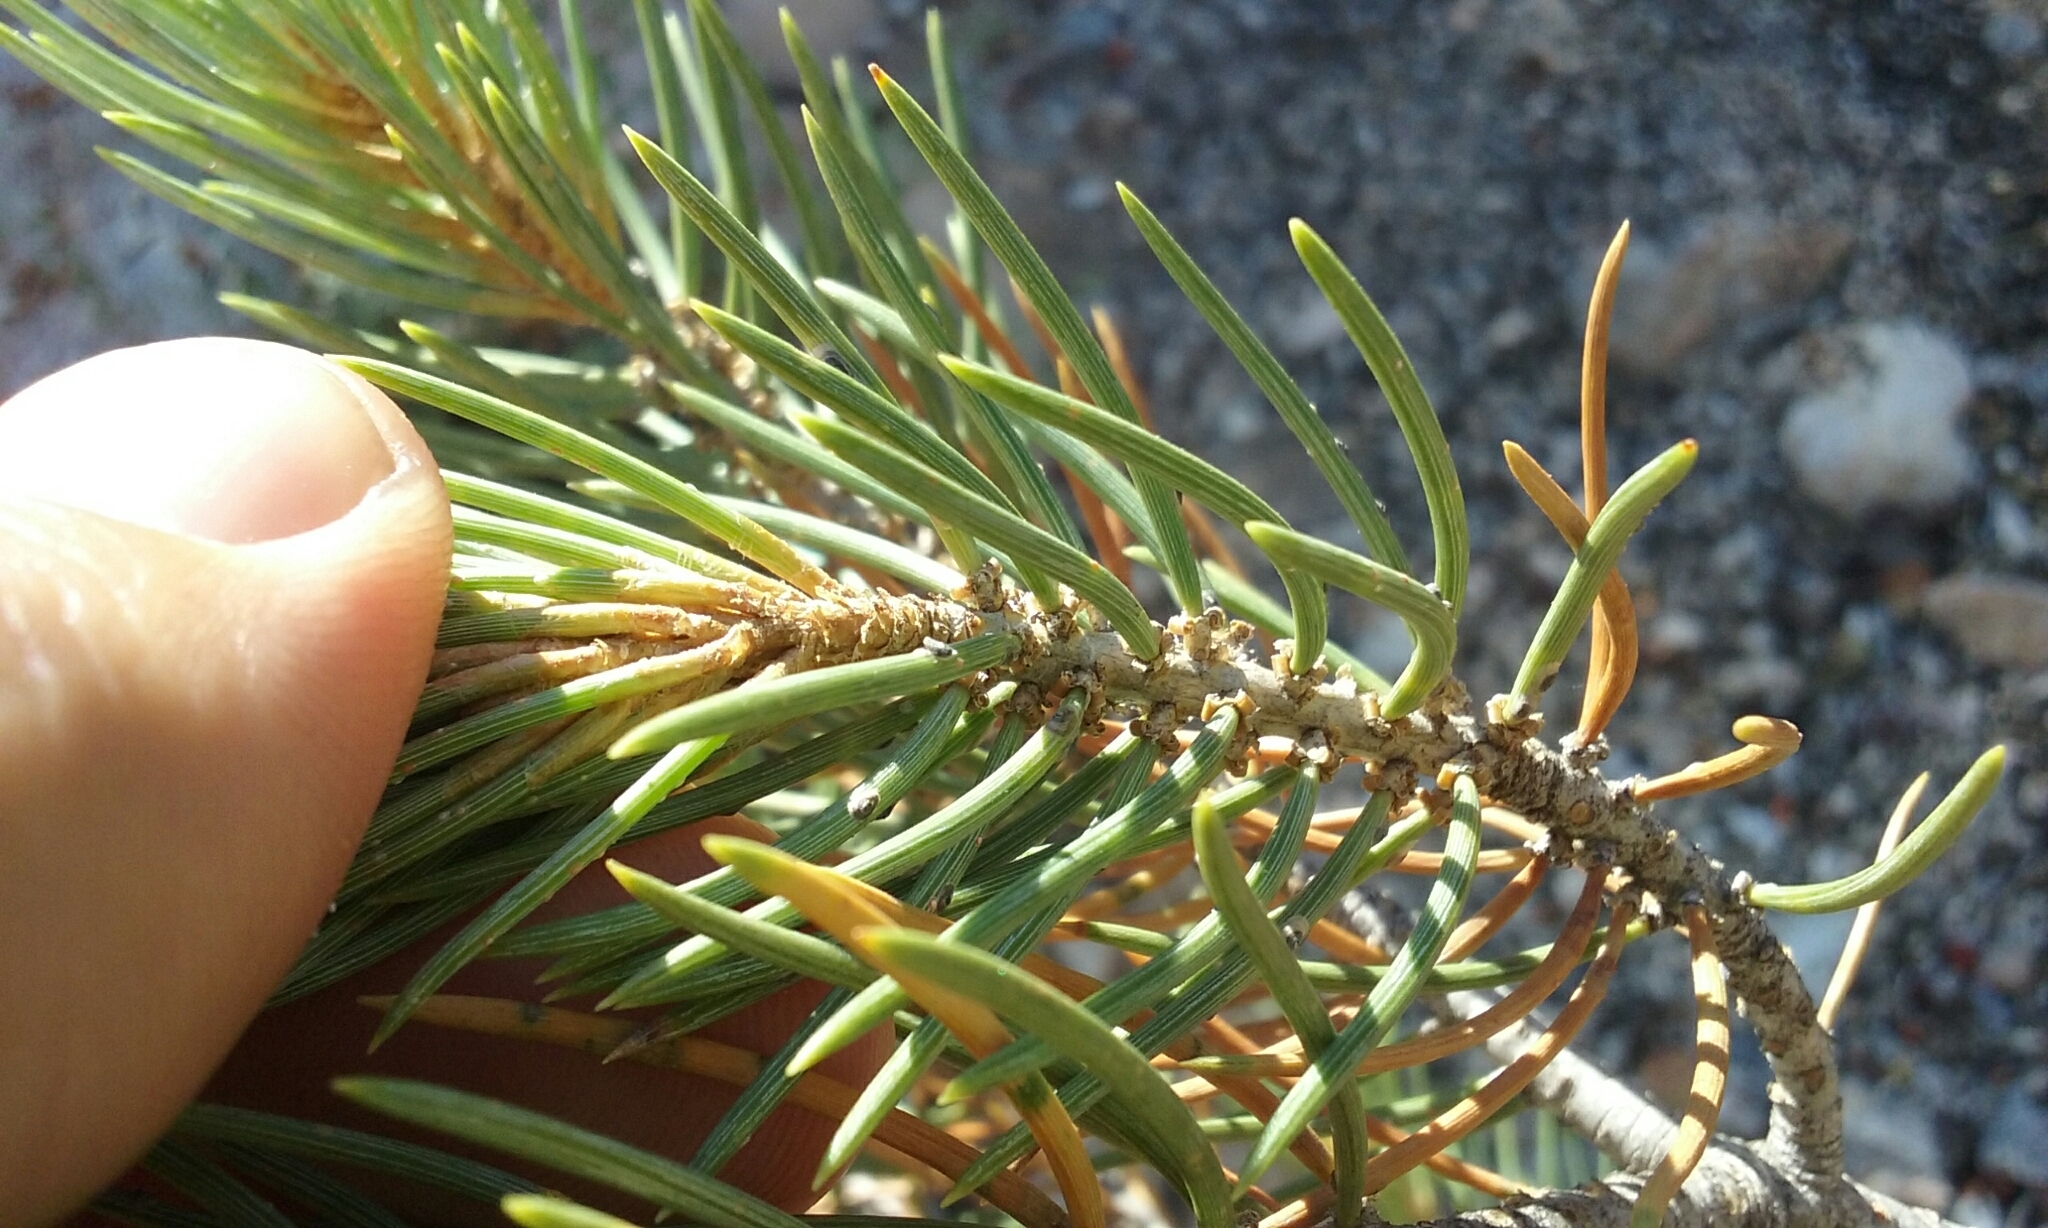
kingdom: Plantae
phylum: Tracheophyta
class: Pinopsida
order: Pinales
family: Pinaceae
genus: Pinus
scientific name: Pinus monophylla
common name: One-leaved nut pine
